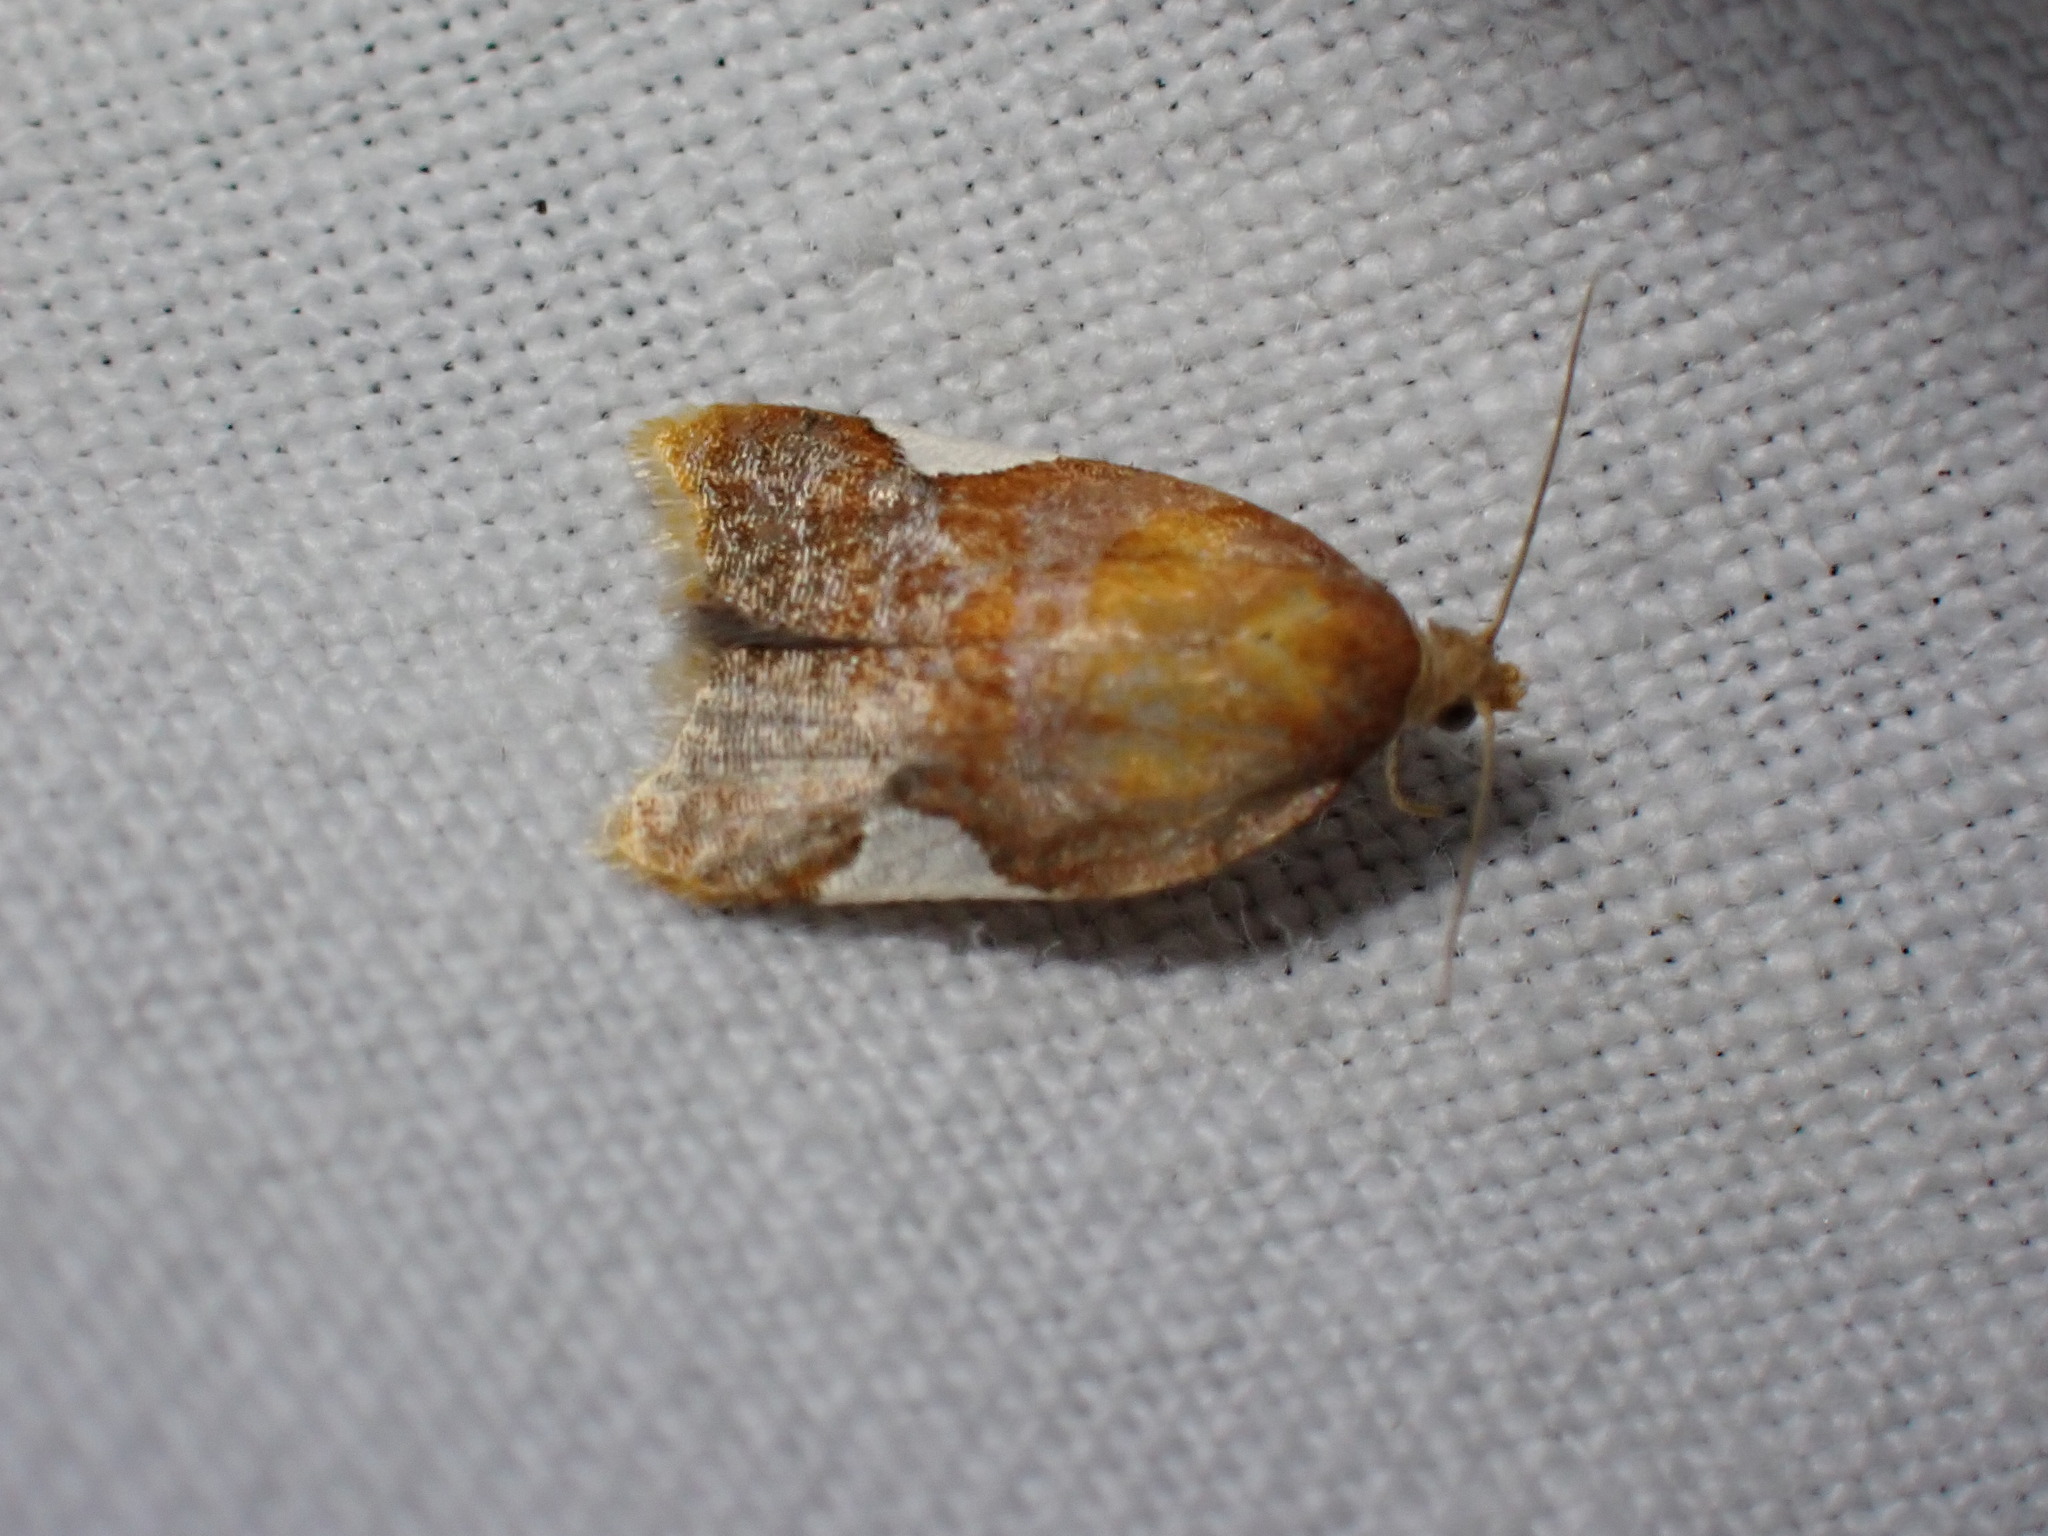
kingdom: Animalia
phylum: Arthropoda
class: Insecta
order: Lepidoptera
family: Tortricidae
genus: Acleris
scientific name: Acleris holmiana
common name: Golden leafroller moth
